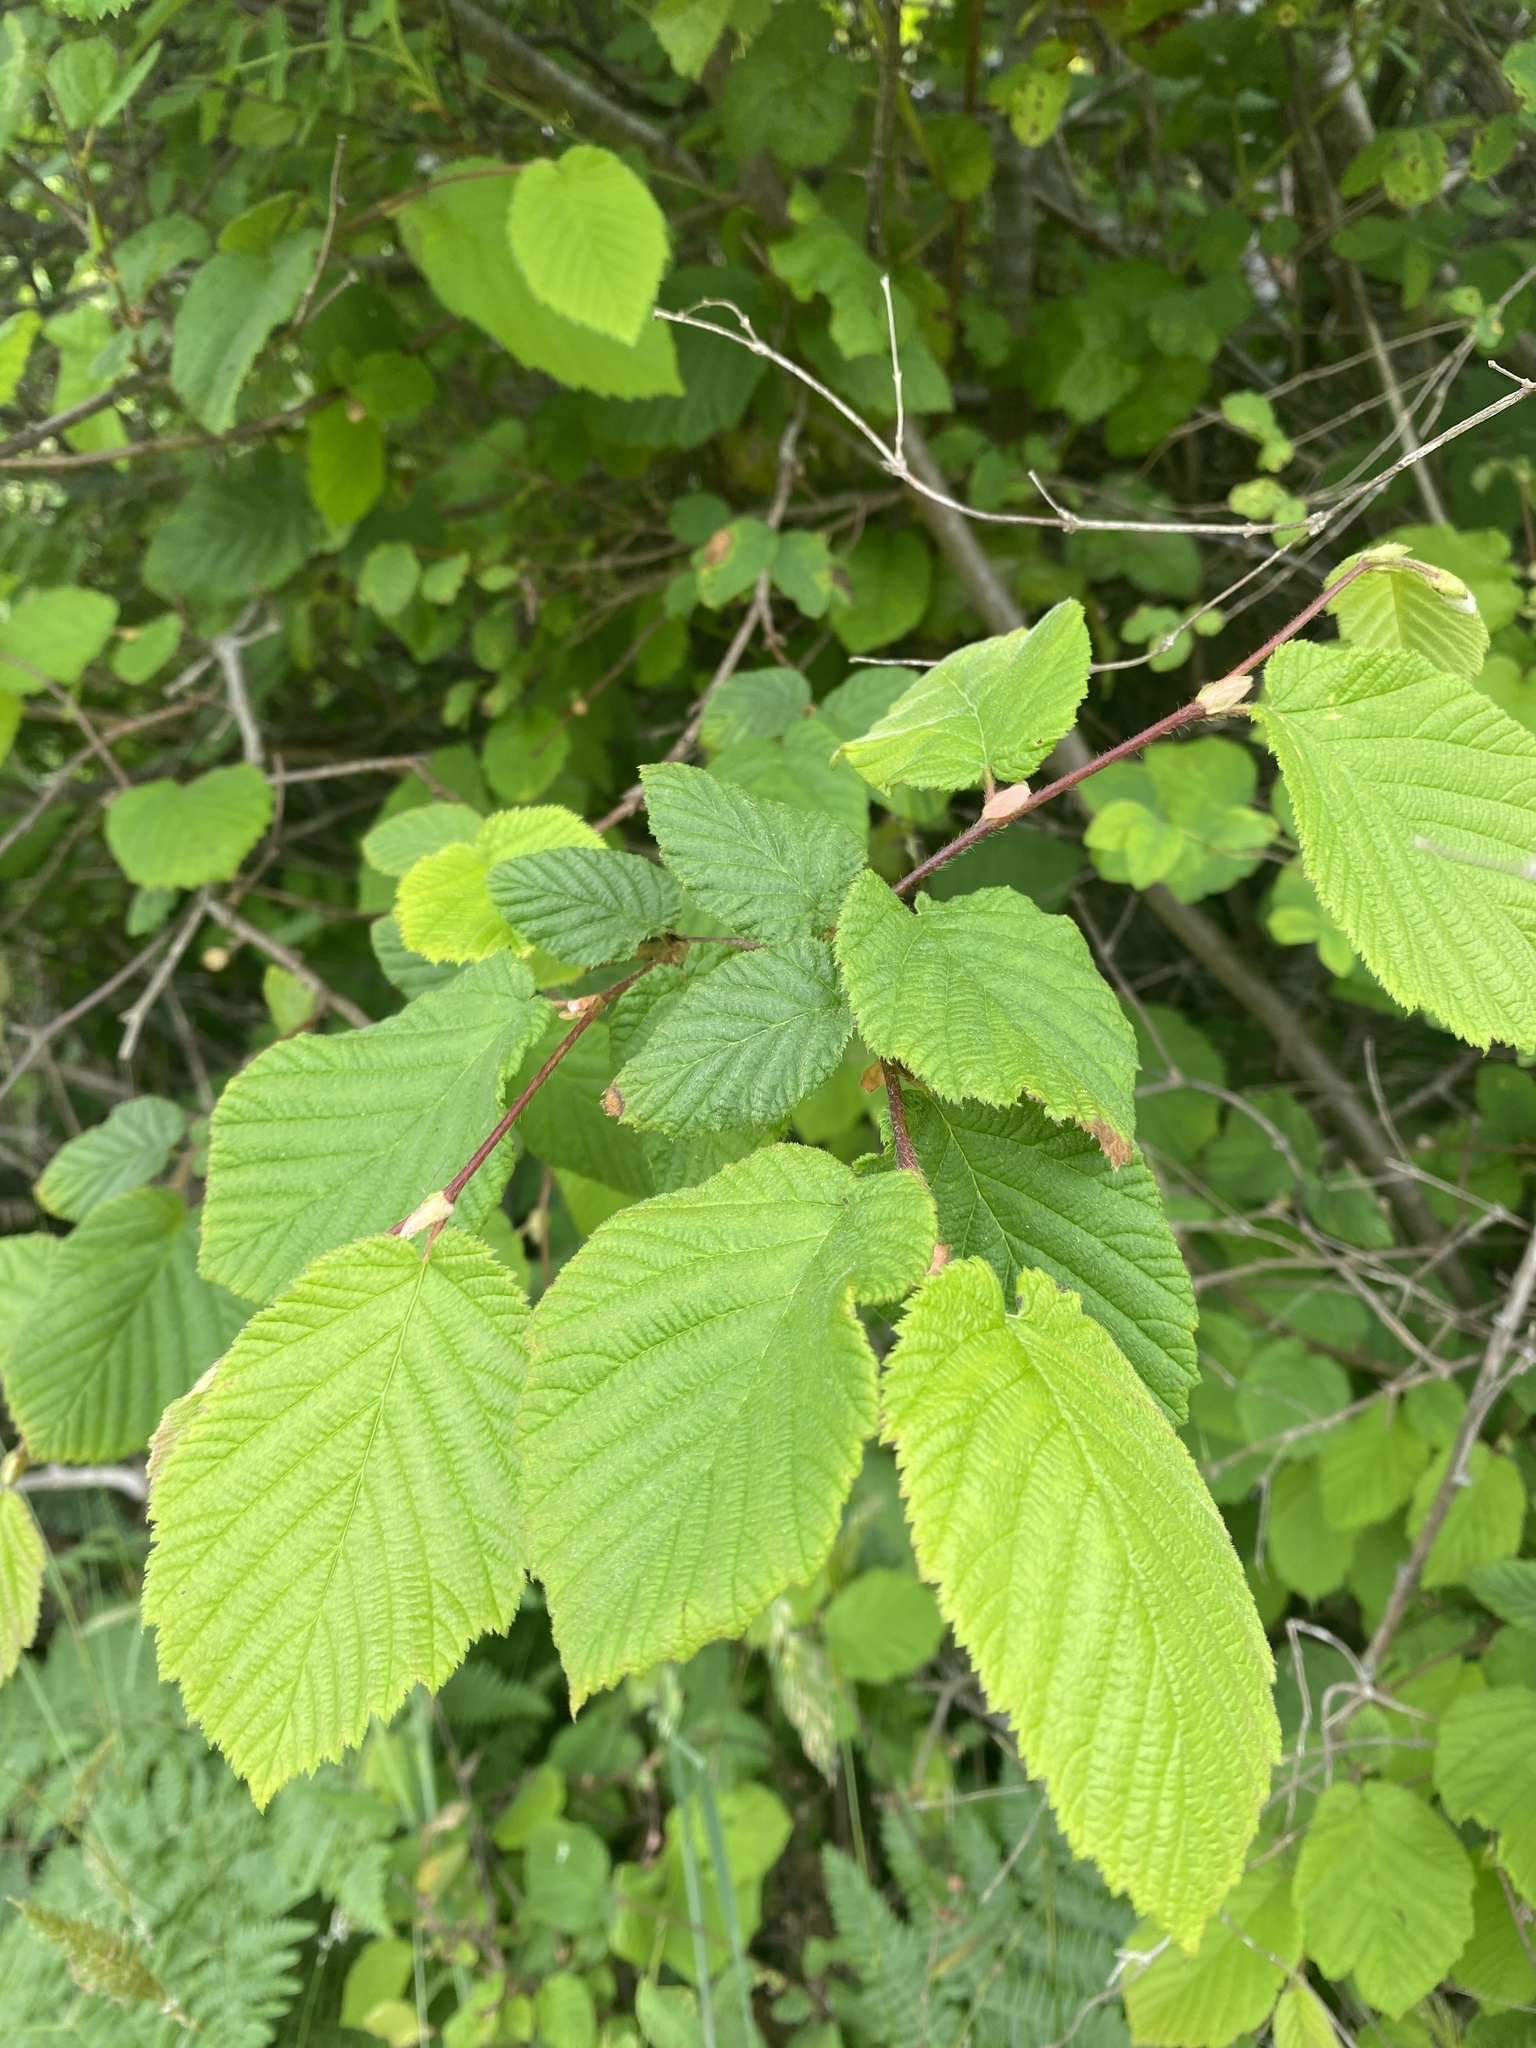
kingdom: Plantae
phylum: Tracheophyta
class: Magnoliopsida
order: Fagales
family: Betulaceae
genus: Corylus
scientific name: Corylus cornuta
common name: Beaked hazel
